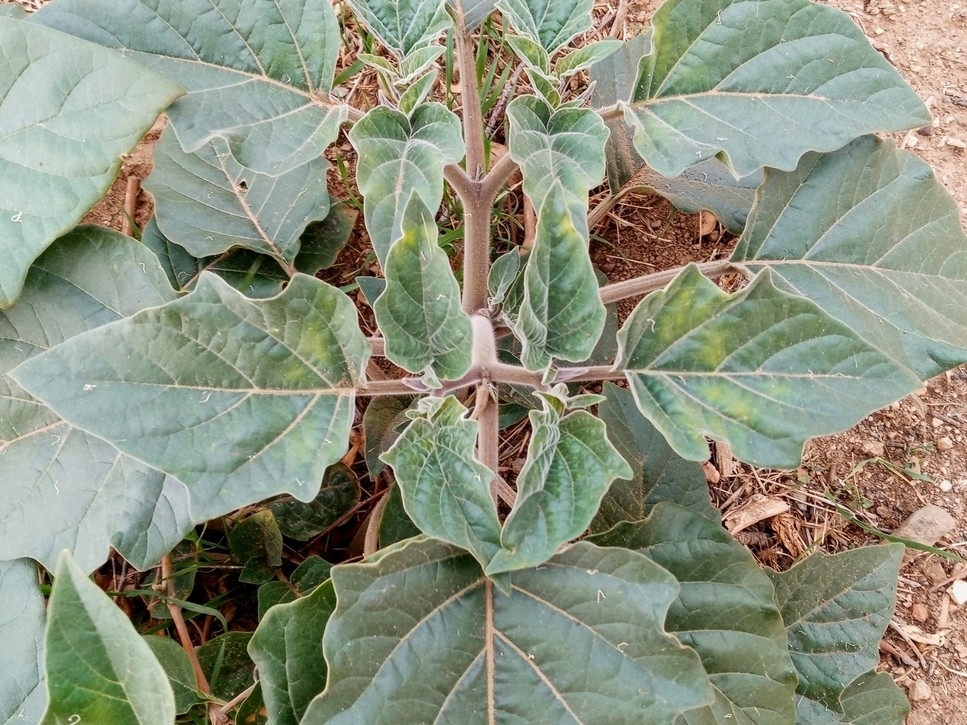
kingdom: Plantae
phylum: Tracheophyta
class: Magnoliopsida
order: Solanales
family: Solanaceae
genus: Datura
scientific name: Datura wrightii
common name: Sacred thorn-apple
